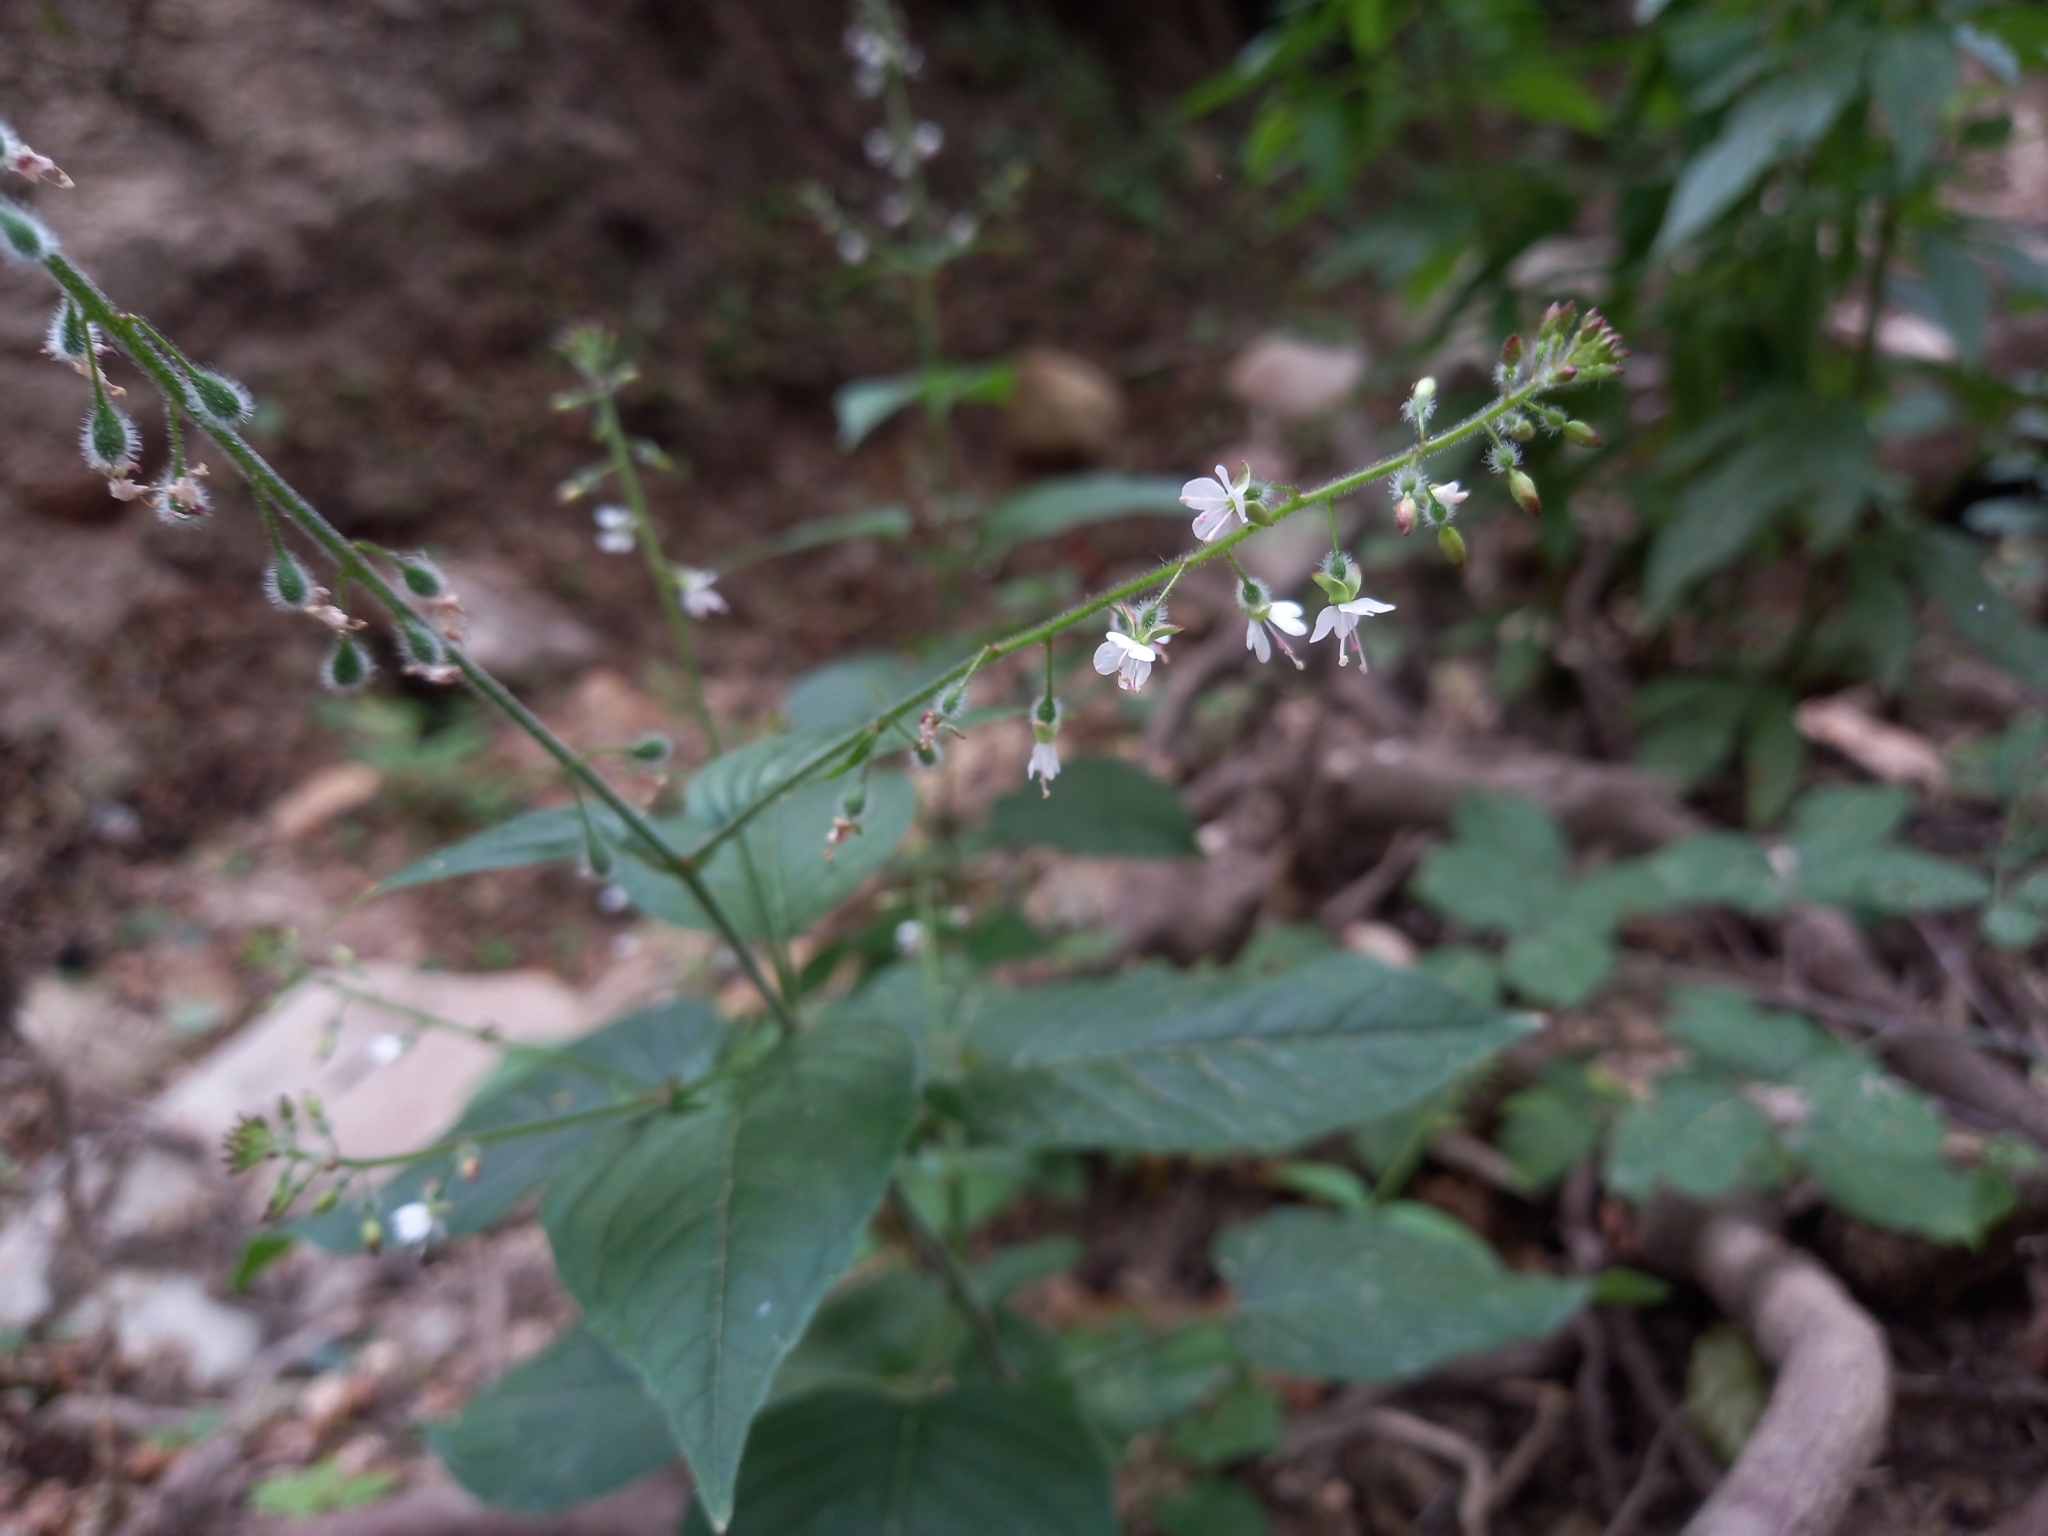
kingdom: Plantae
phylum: Tracheophyta
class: Magnoliopsida
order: Myrtales
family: Onagraceae
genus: Circaea
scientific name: Circaea lutetiana
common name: Enchanter's-nightshade
